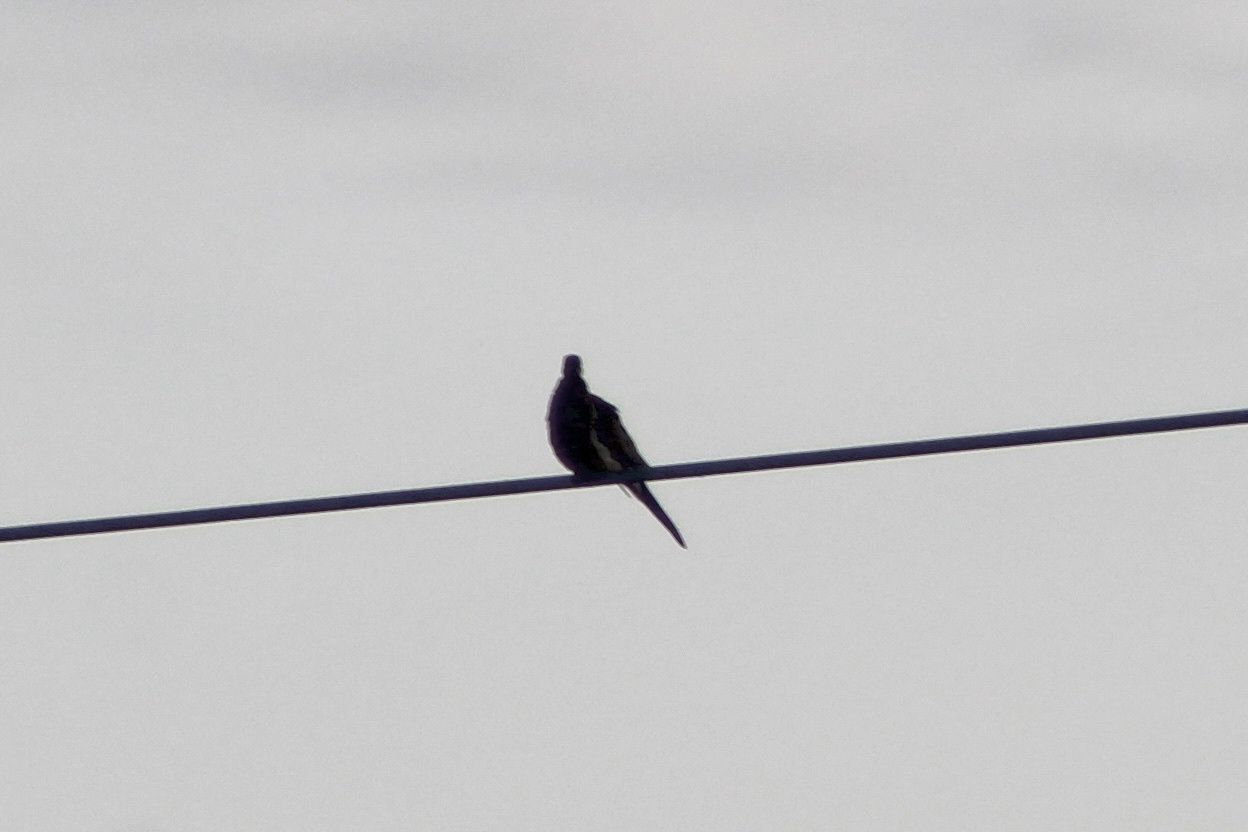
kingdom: Animalia
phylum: Chordata
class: Aves
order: Columbiformes
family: Columbidae
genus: Zenaida
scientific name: Zenaida macroura
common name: Mourning dove
